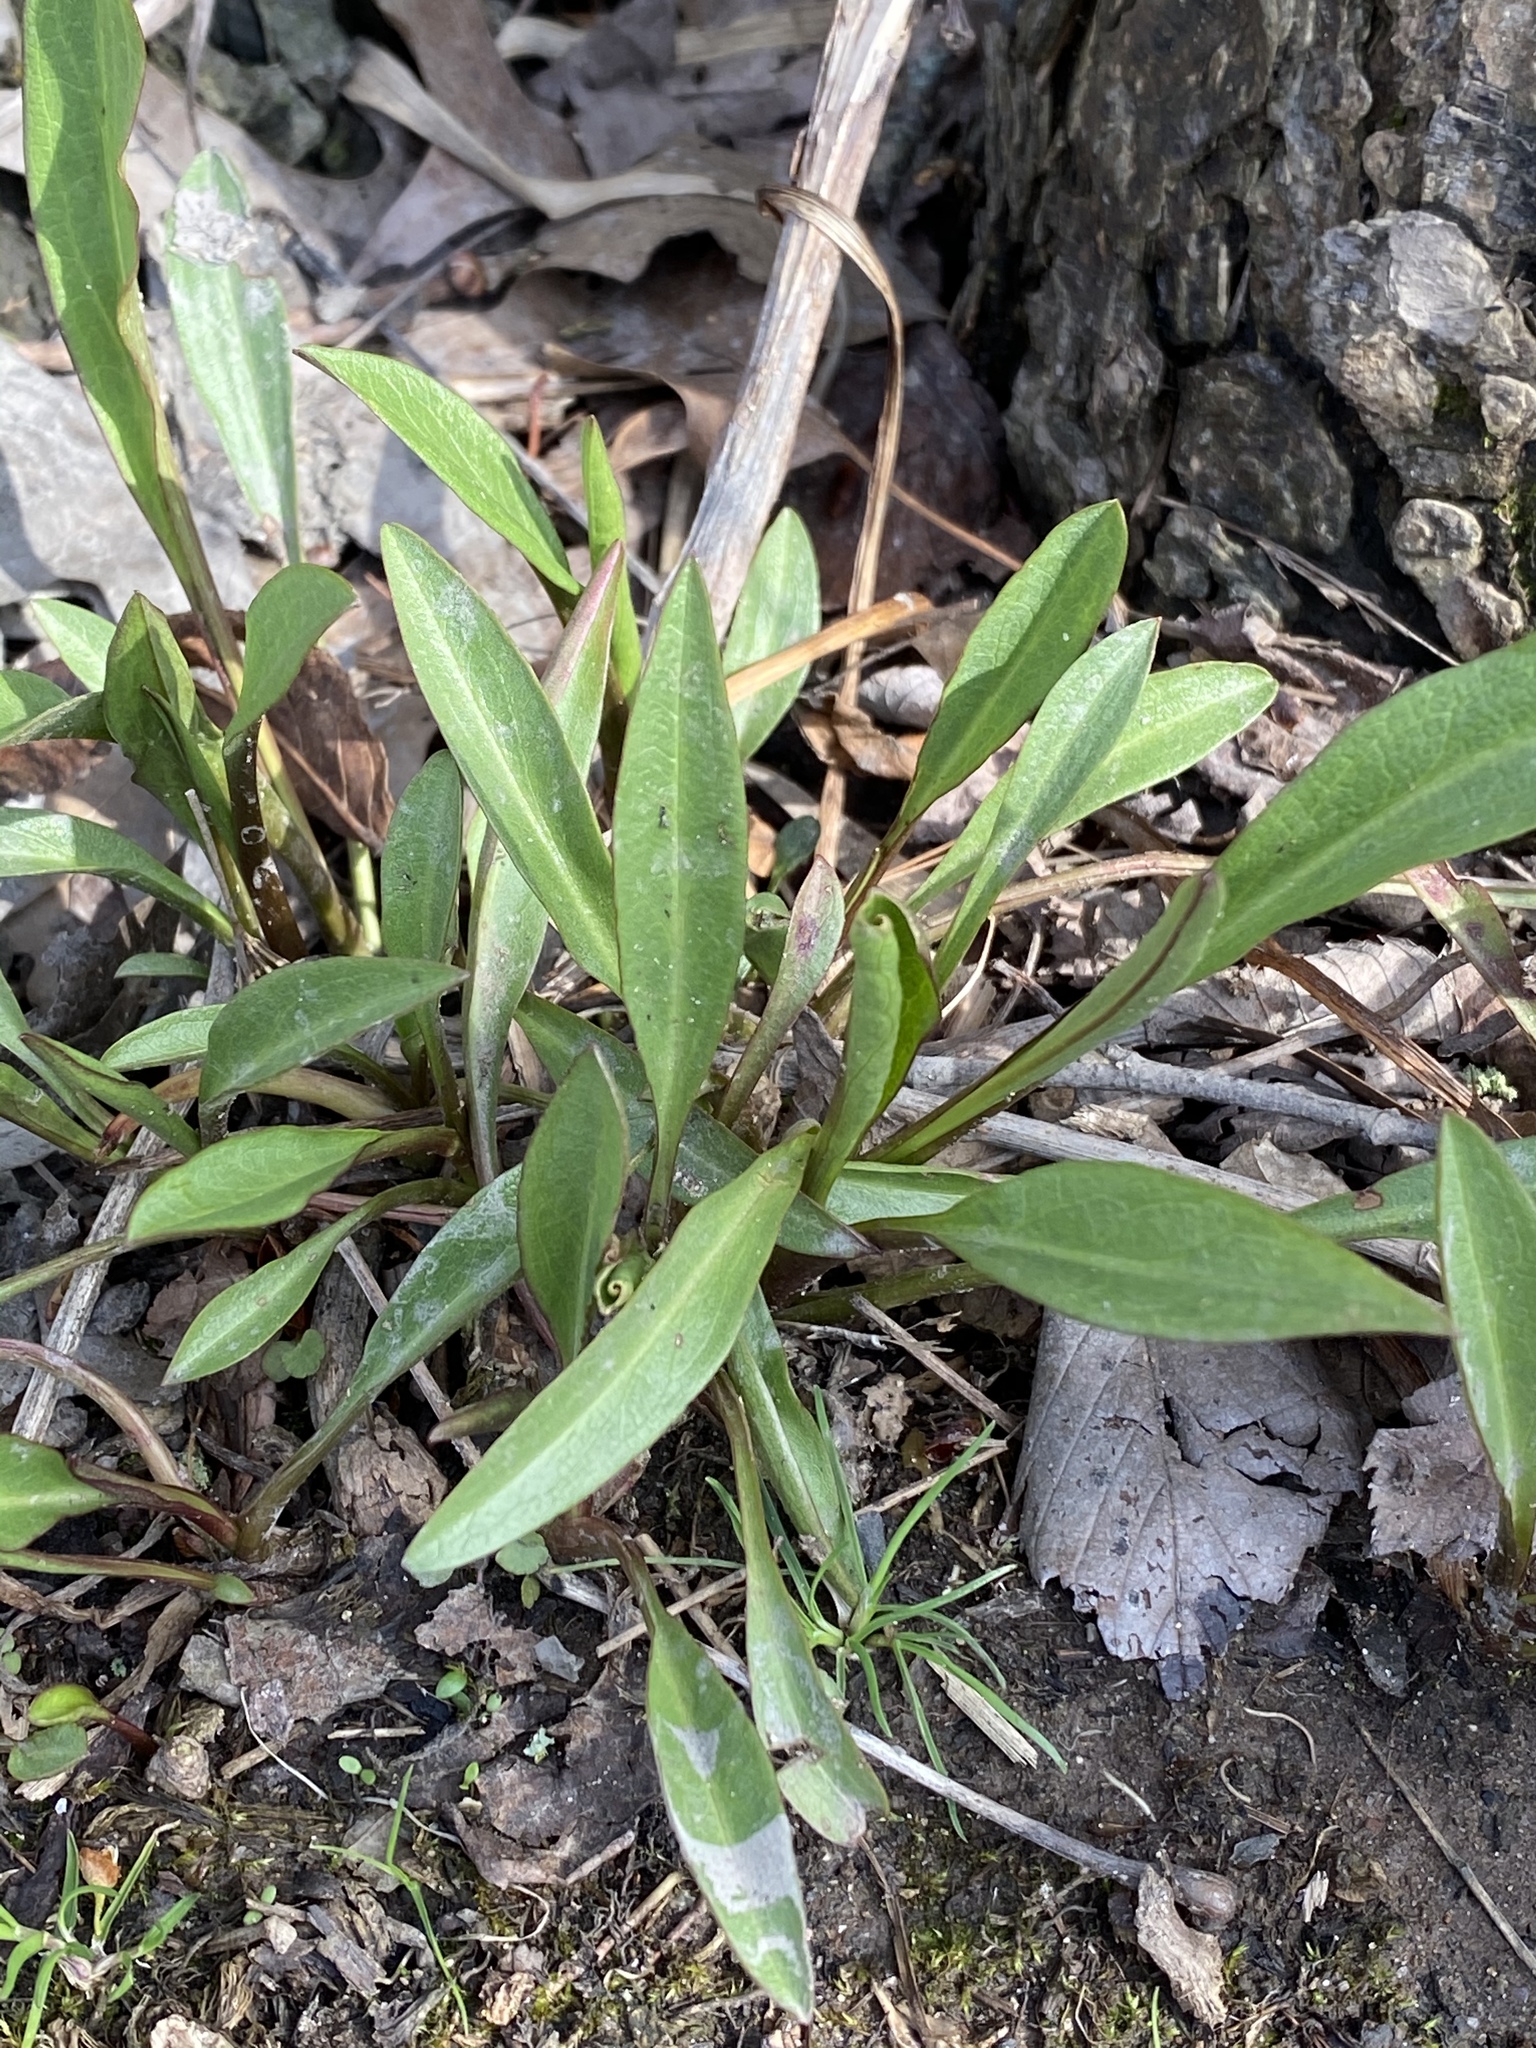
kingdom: Plantae
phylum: Tracheophyta
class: Magnoliopsida
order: Asterales
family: Asteraceae
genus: Solidago
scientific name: Solidago sempervirens
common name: Salt-marsh goldenrod
